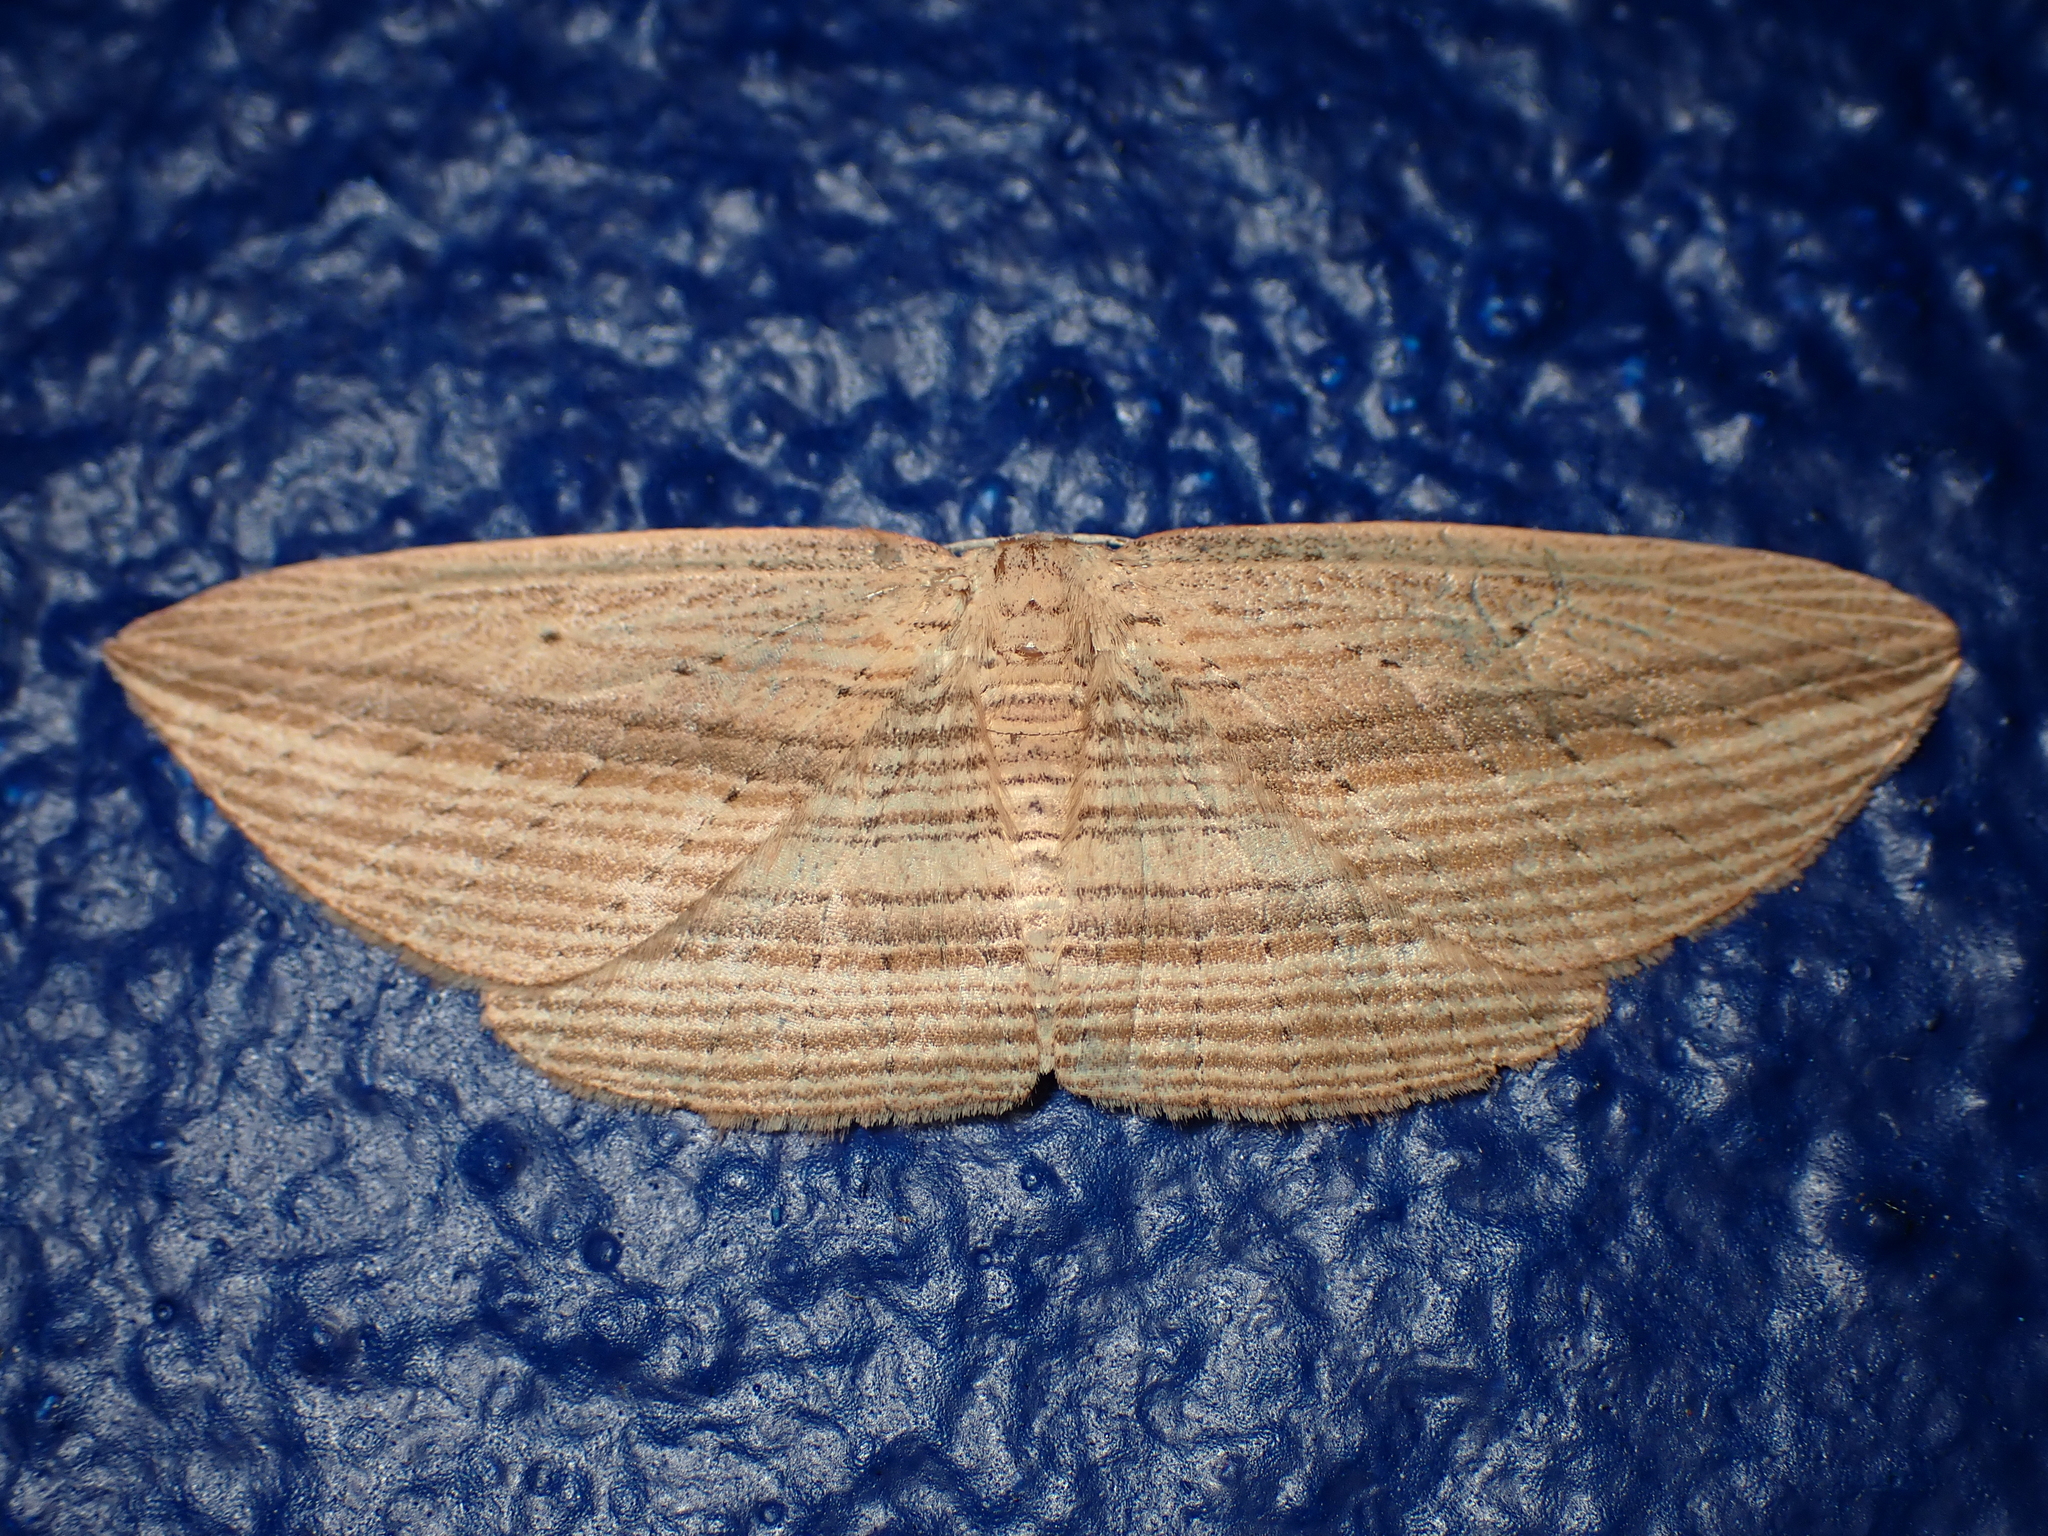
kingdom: Animalia
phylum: Arthropoda
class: Insecta
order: Lepidoptera
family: Geometridae
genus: Epiphryne
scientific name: Epiphryne verriculata
